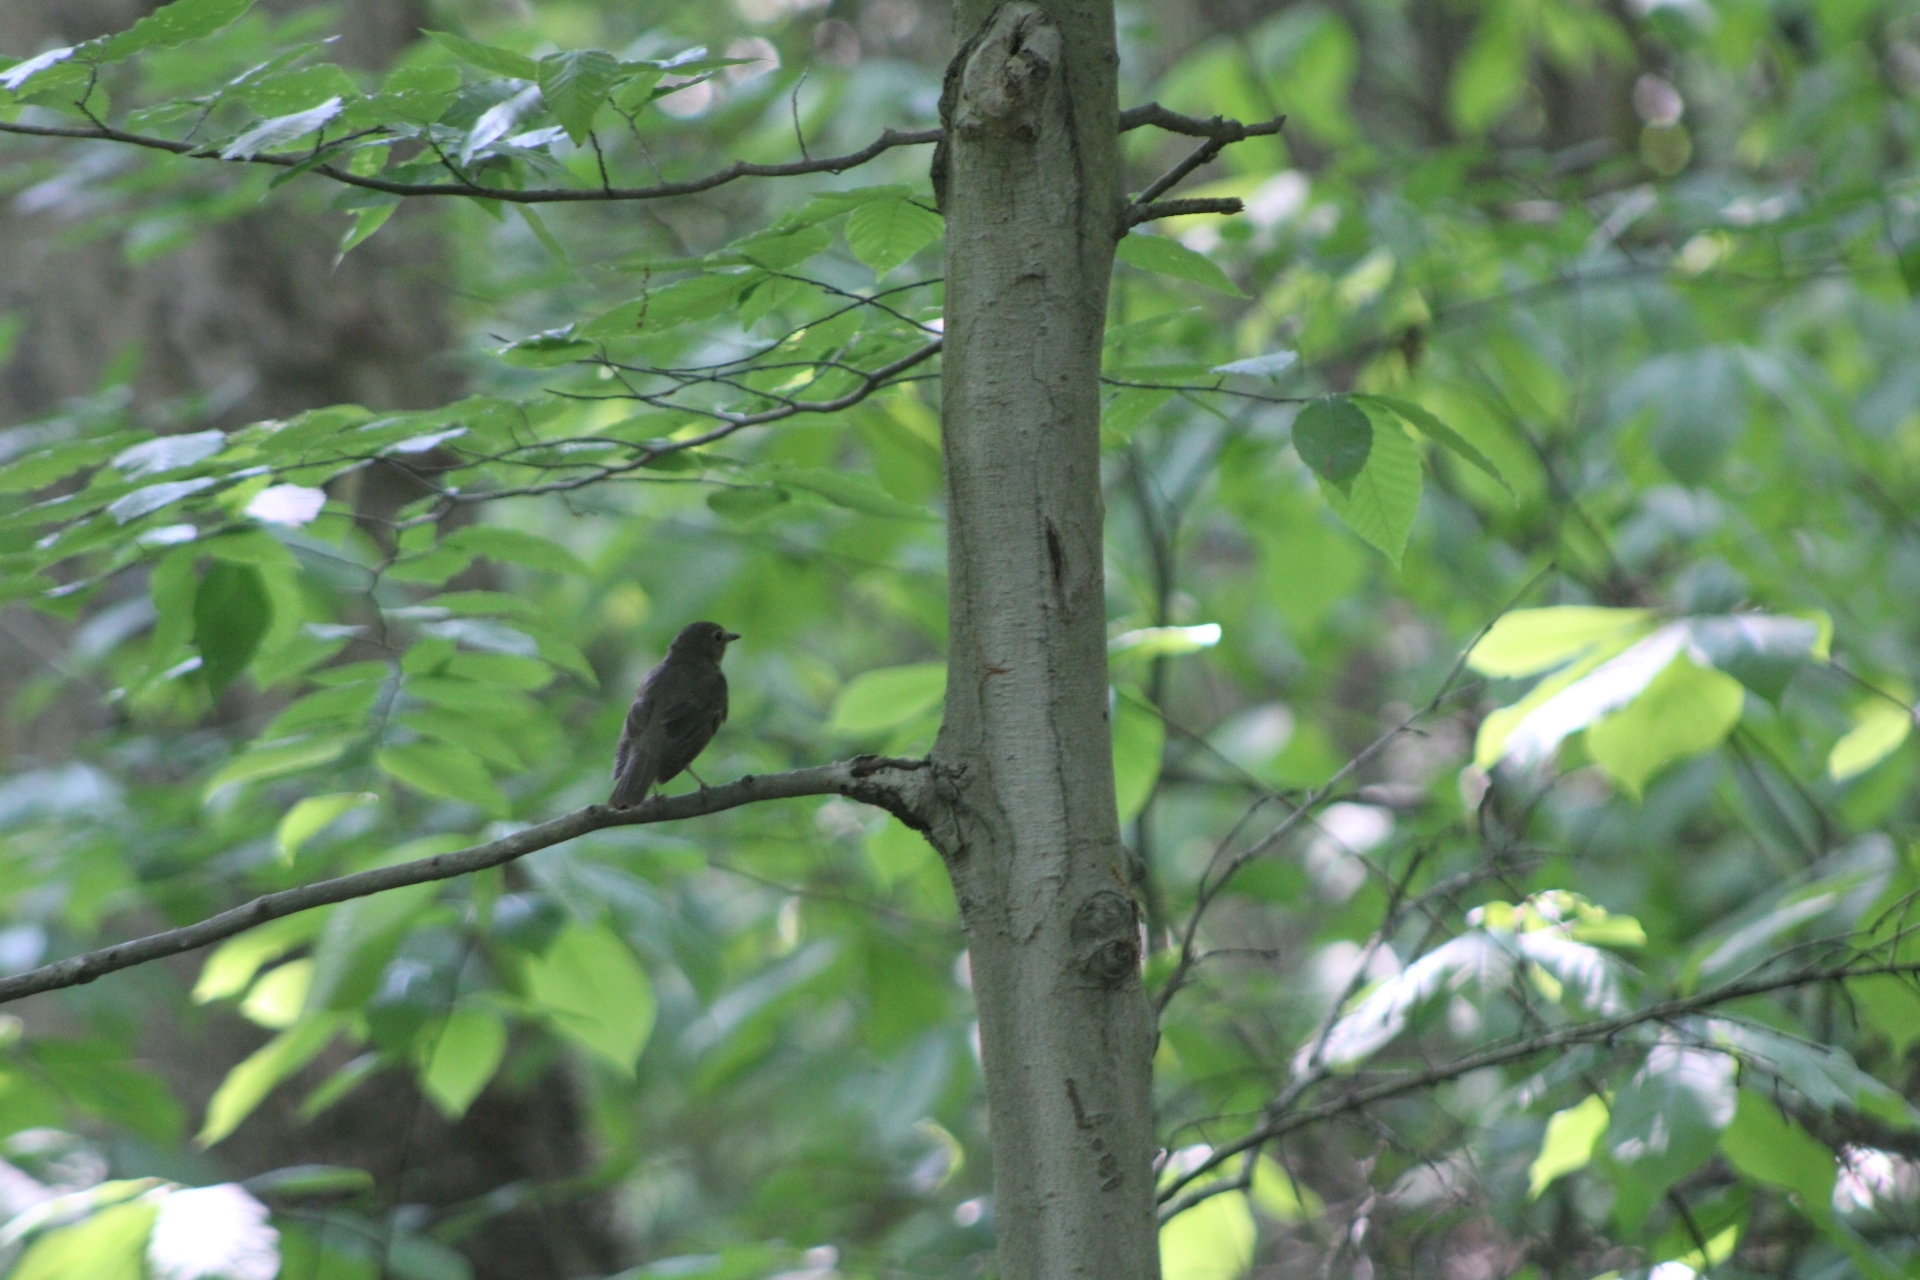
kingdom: Animalia
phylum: Chordata
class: Aves
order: Passeriformes
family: Turdidae
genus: Catharus
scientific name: Catharus ustulatus
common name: Swainson's thrush
